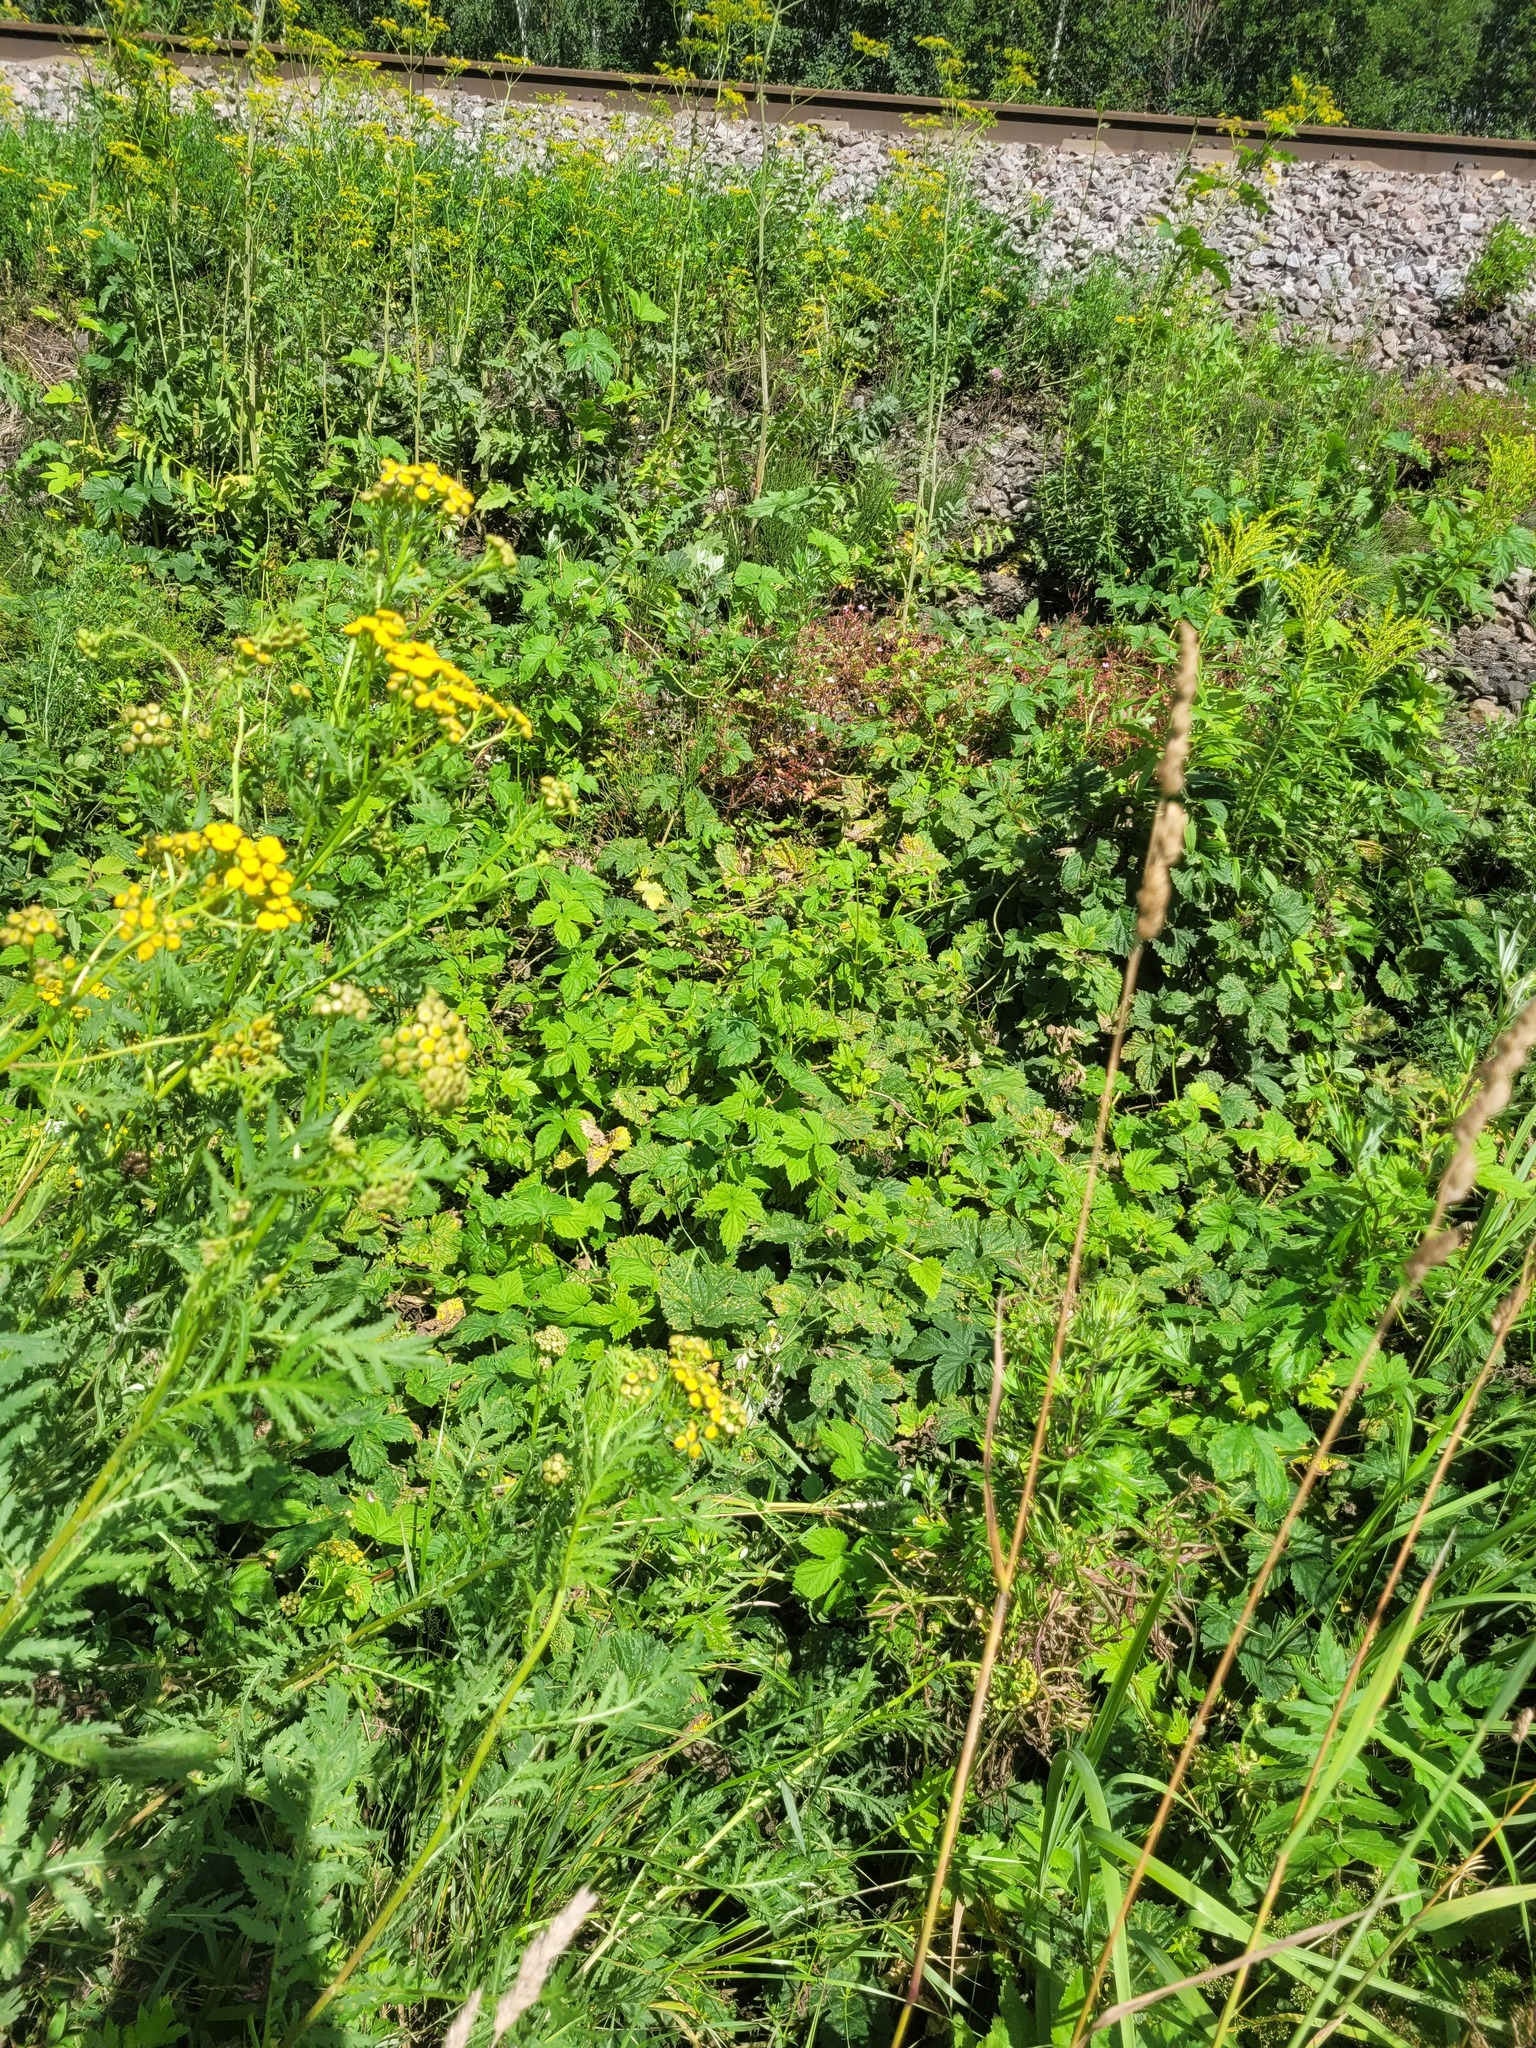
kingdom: Plantae
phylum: Tracheophyta
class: Magnoliopsida
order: Rosales
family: Cannabaceae
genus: Humulus
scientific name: Humulus lupulus
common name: Hop
